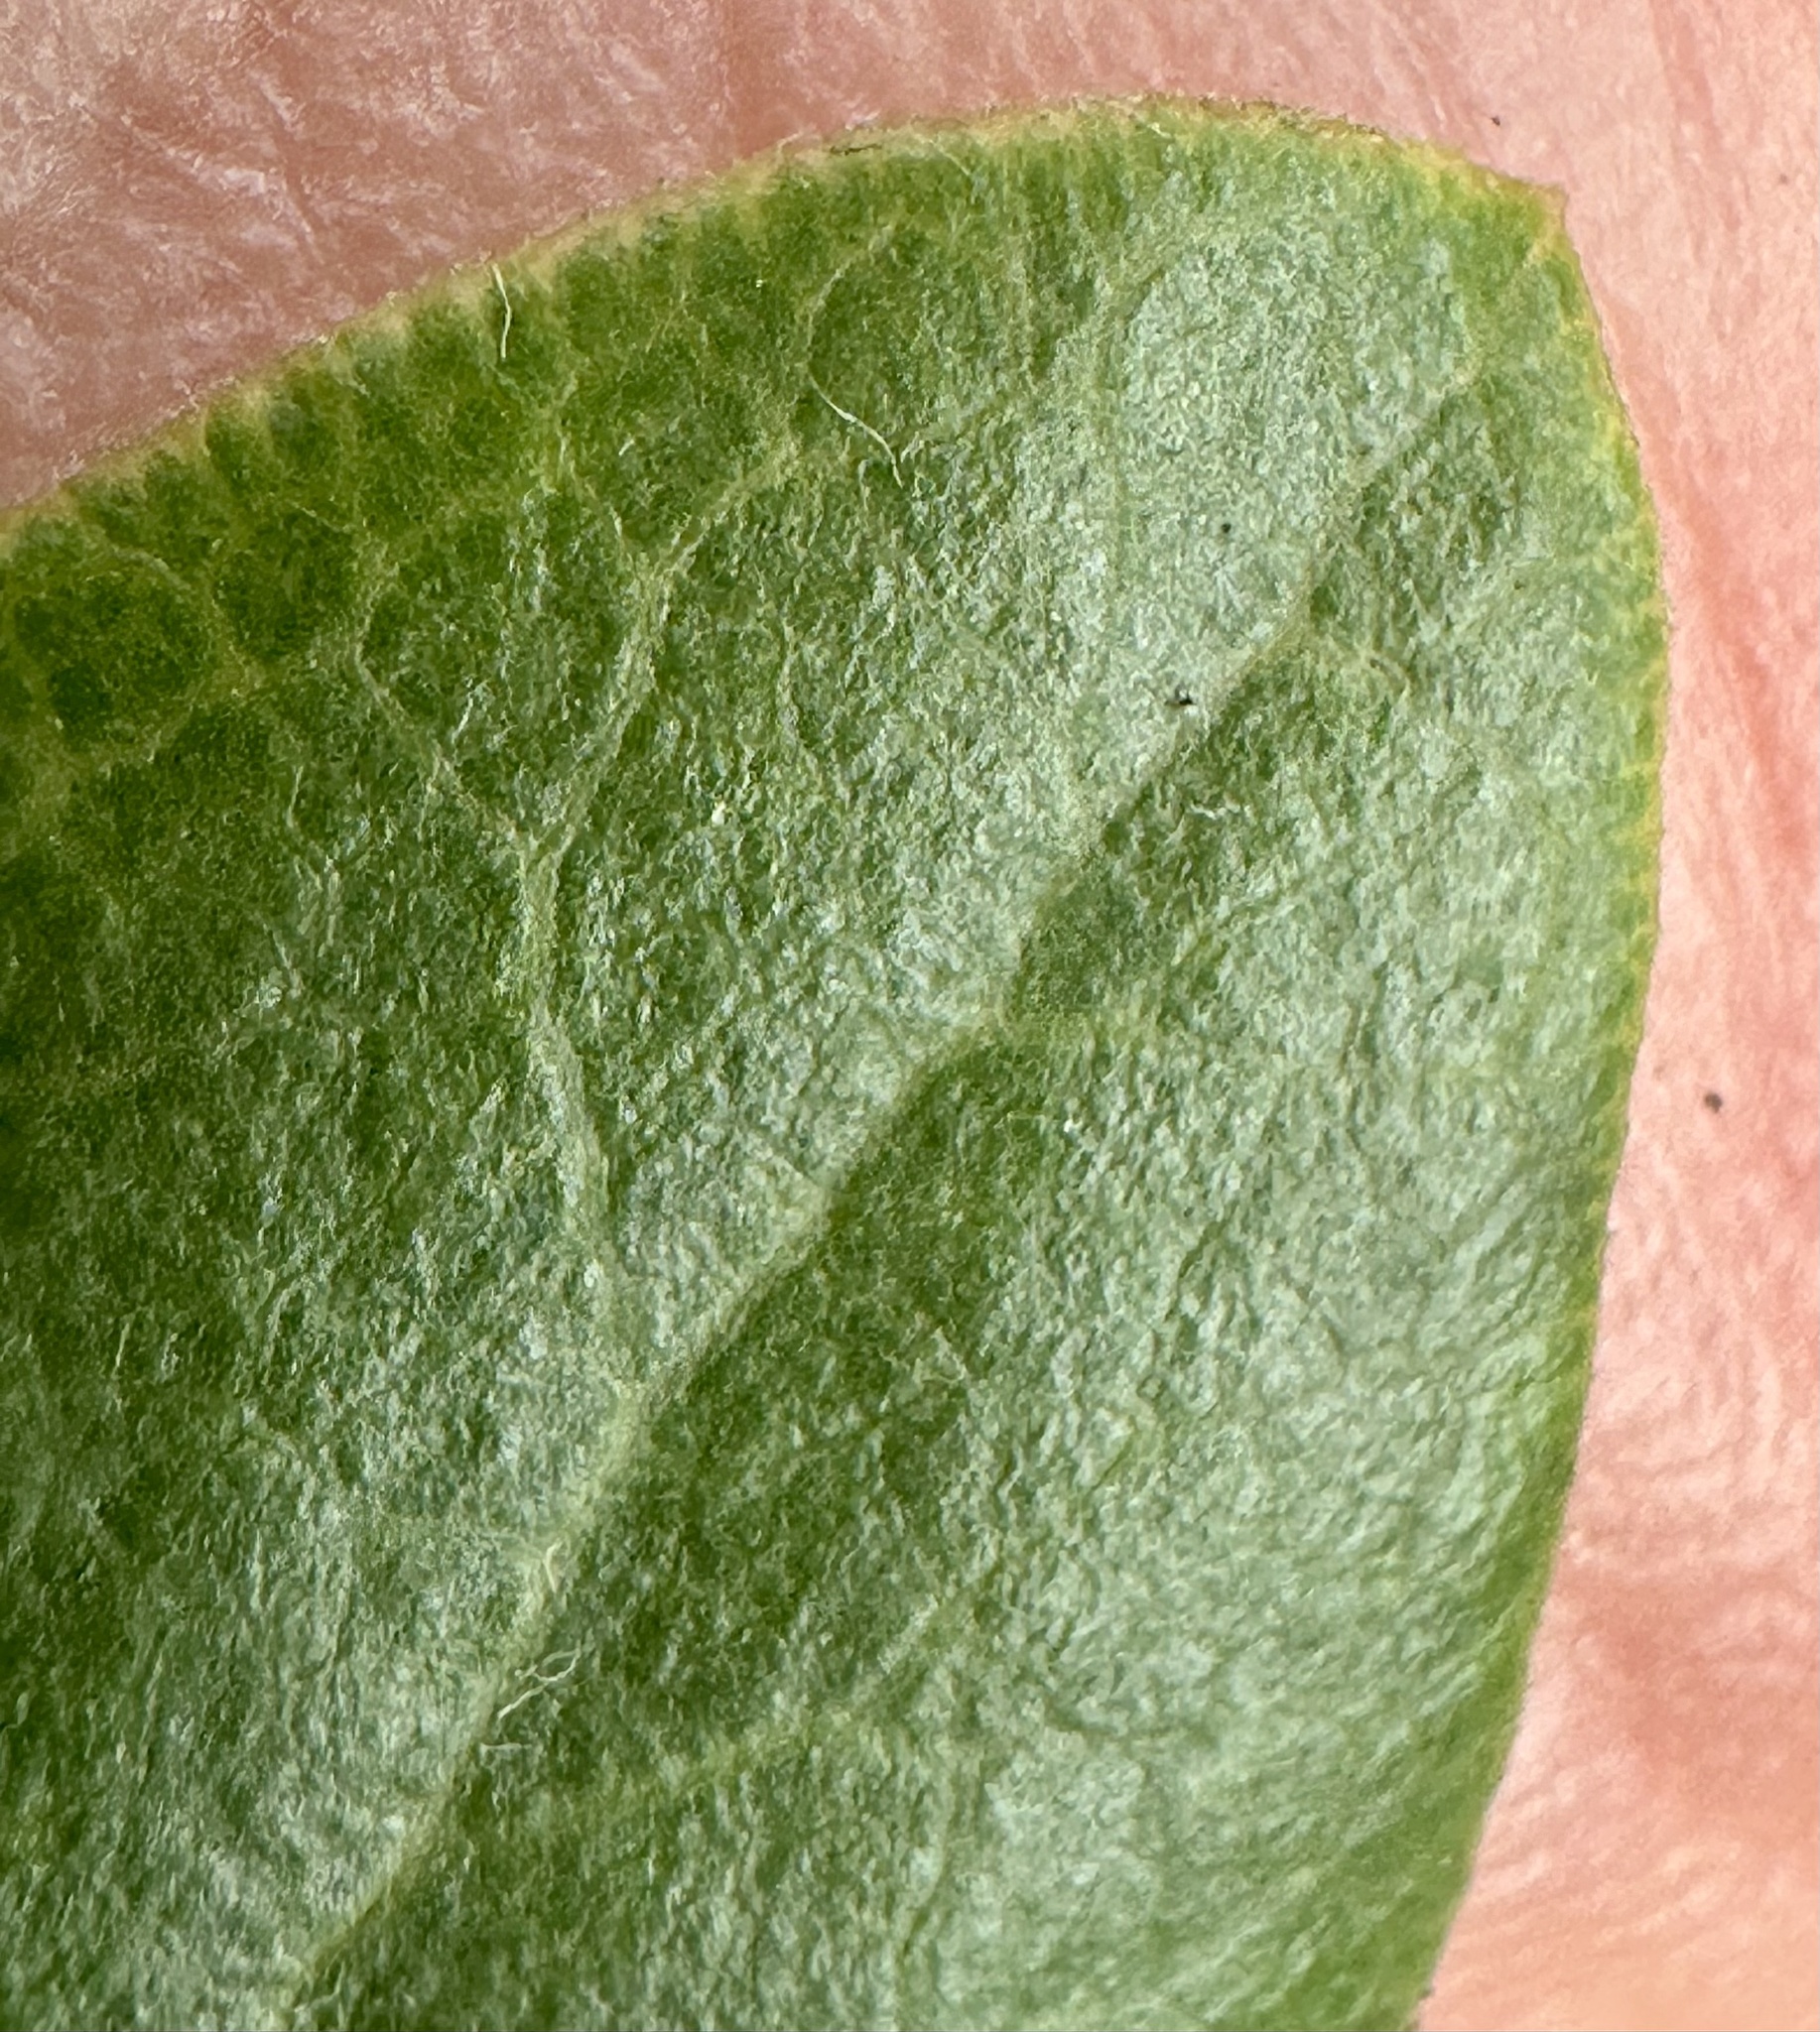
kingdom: Plantae
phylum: Tracheophyta
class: Magnoliopsida
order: Ericales
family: Ericaceae
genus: Arctostaphylos
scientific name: Arctostaphylos tomentosa
